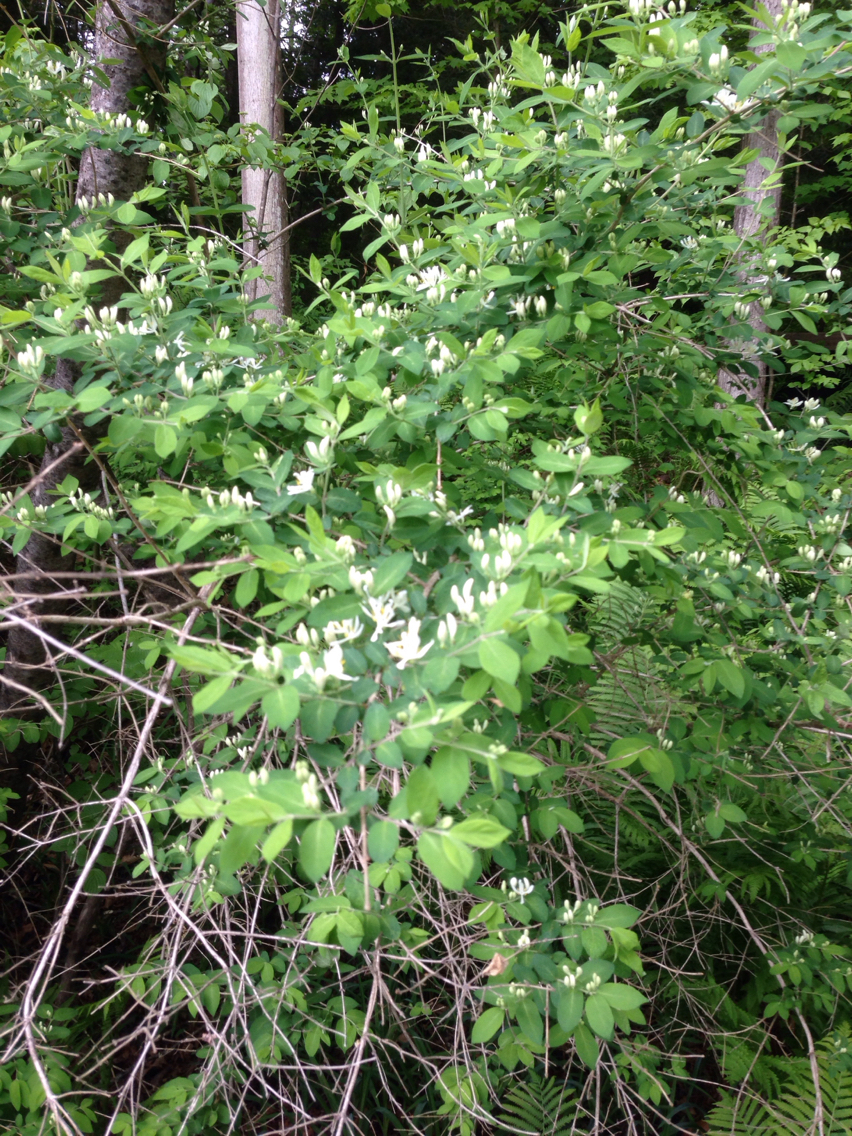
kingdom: Plantae
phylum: Tracheophyta
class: Magnoliopsida
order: Dipsacales
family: Caprifoliaceae
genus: Lonicera
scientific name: Lonicera morrowii
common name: Morrow's honeysuckle
